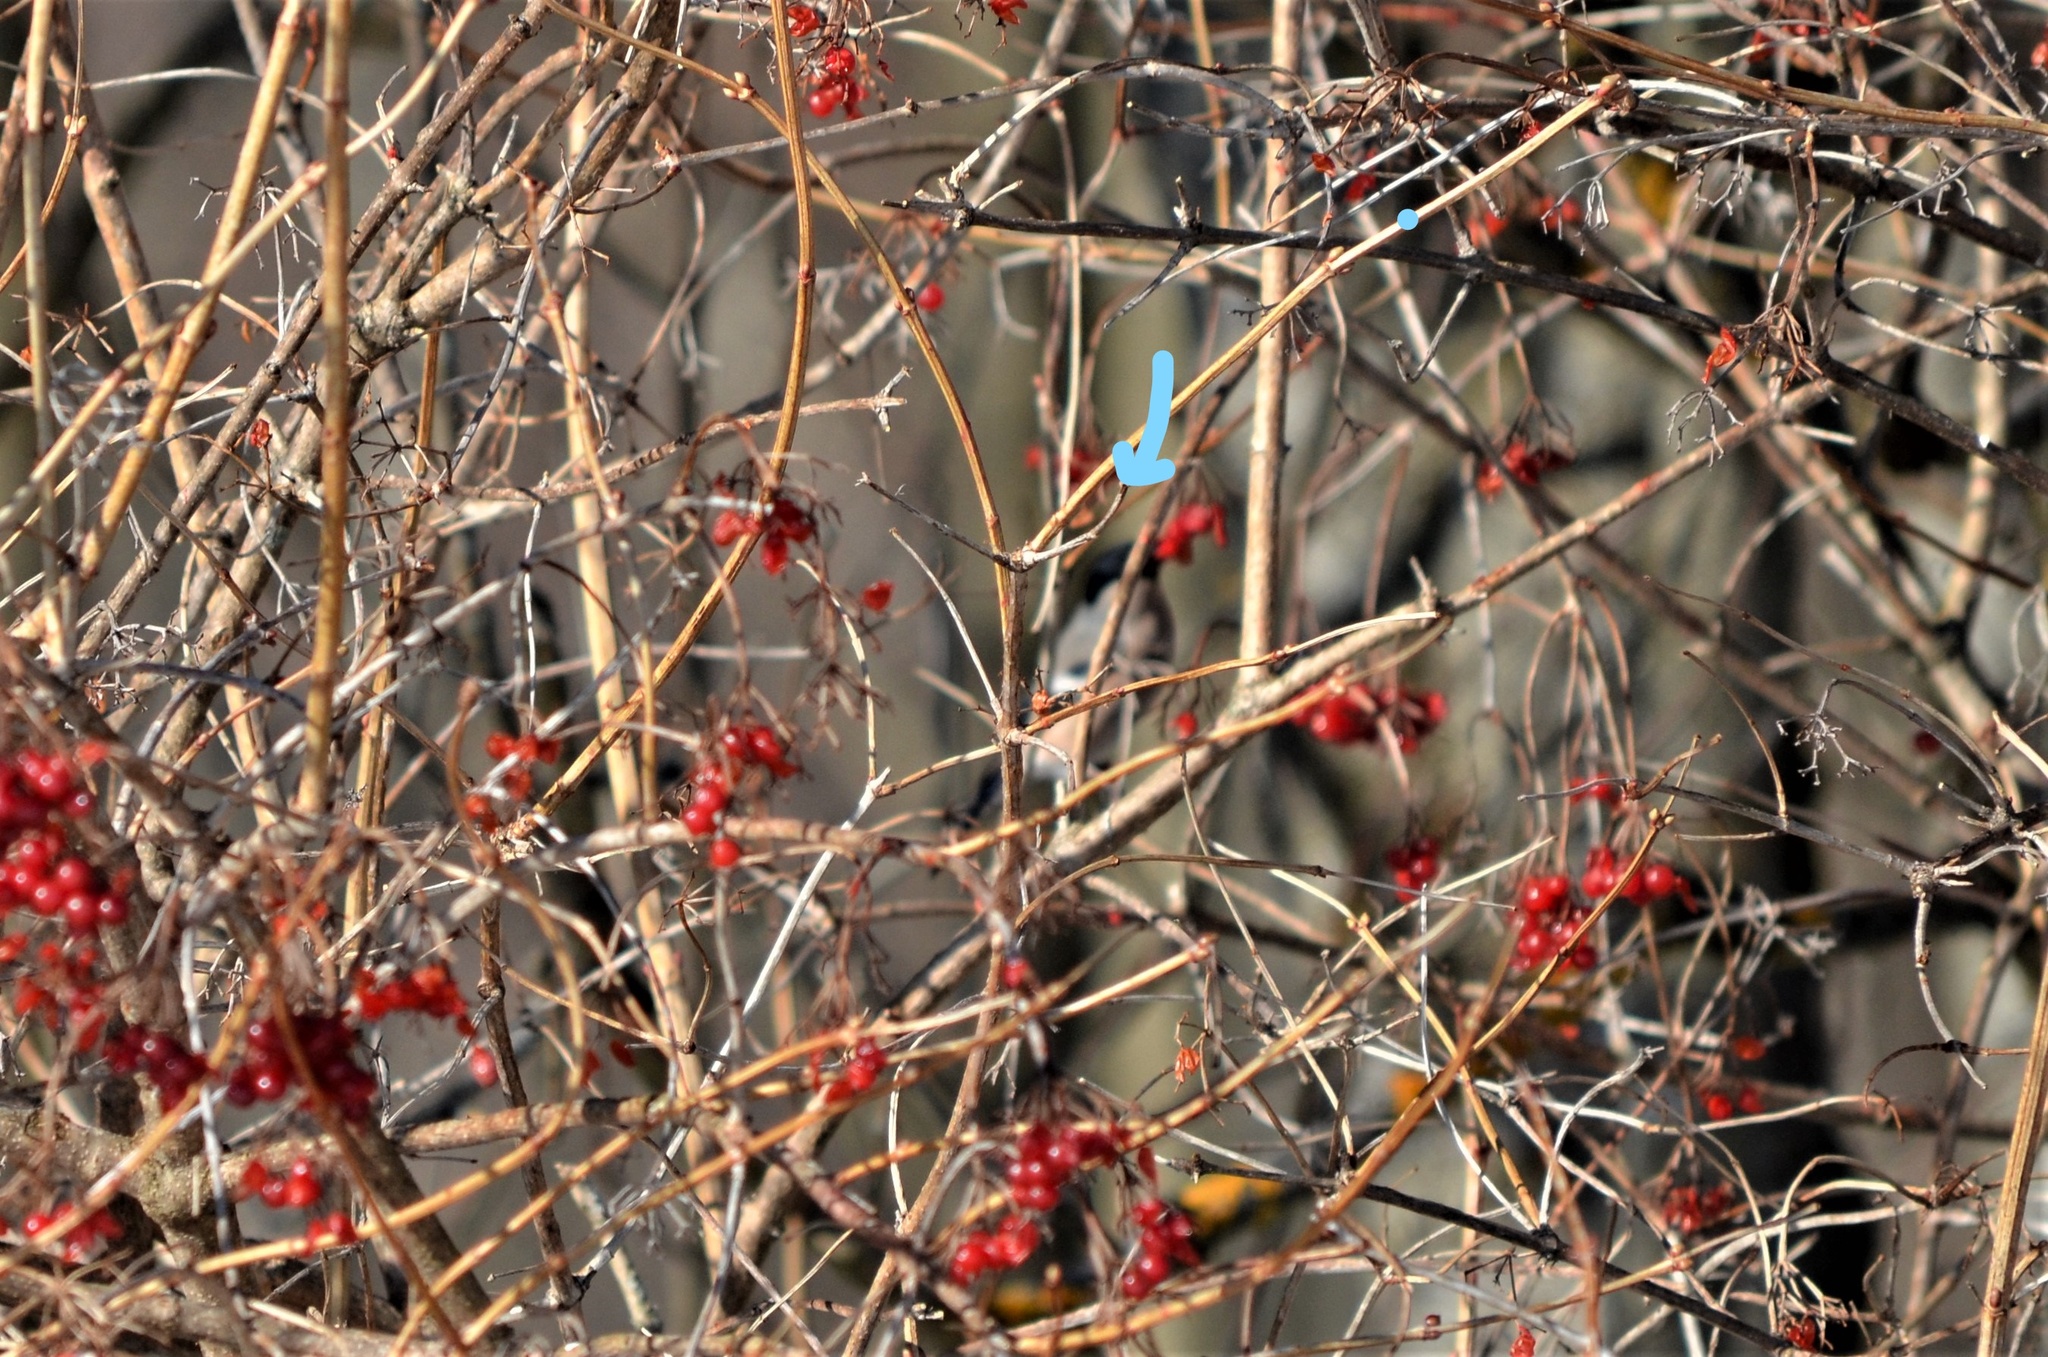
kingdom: Animalia
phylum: Chordata
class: Aves
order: Passeriformes
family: Fringillidae
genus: Pyrrhula
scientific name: Pyrrhula pyrrhula
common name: Eurasian bullfinch
